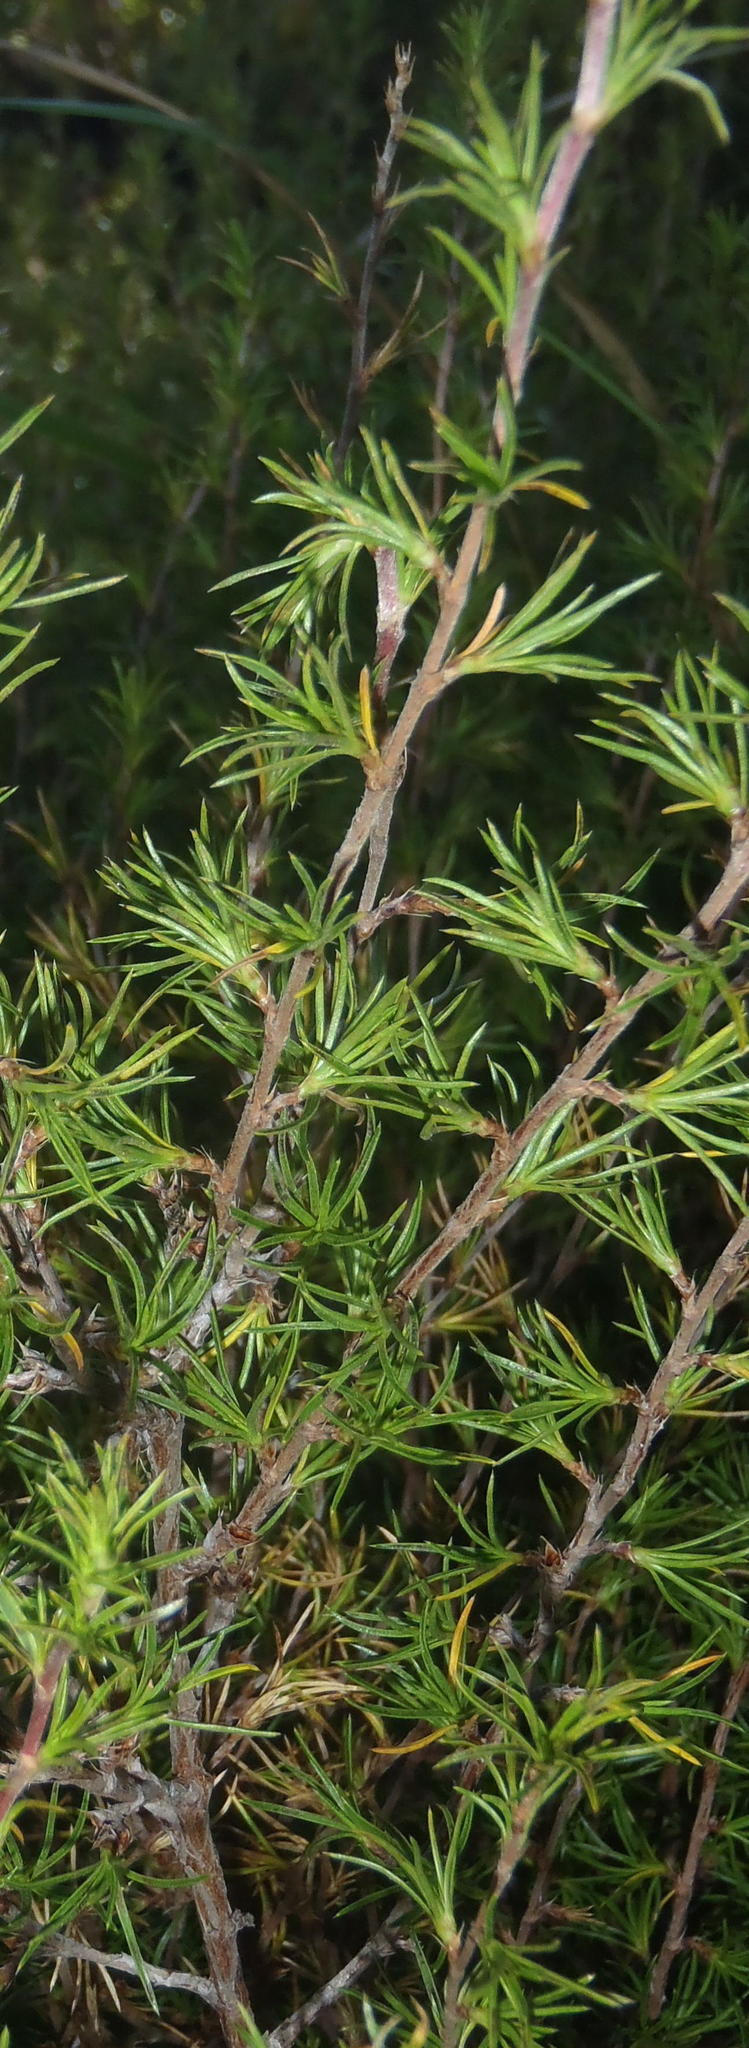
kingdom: Plantae
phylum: Tracheophyta
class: Magnoliopsida
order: Rosales
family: Rosaceae
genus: Cliffortia
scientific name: Cliffortia atrata
